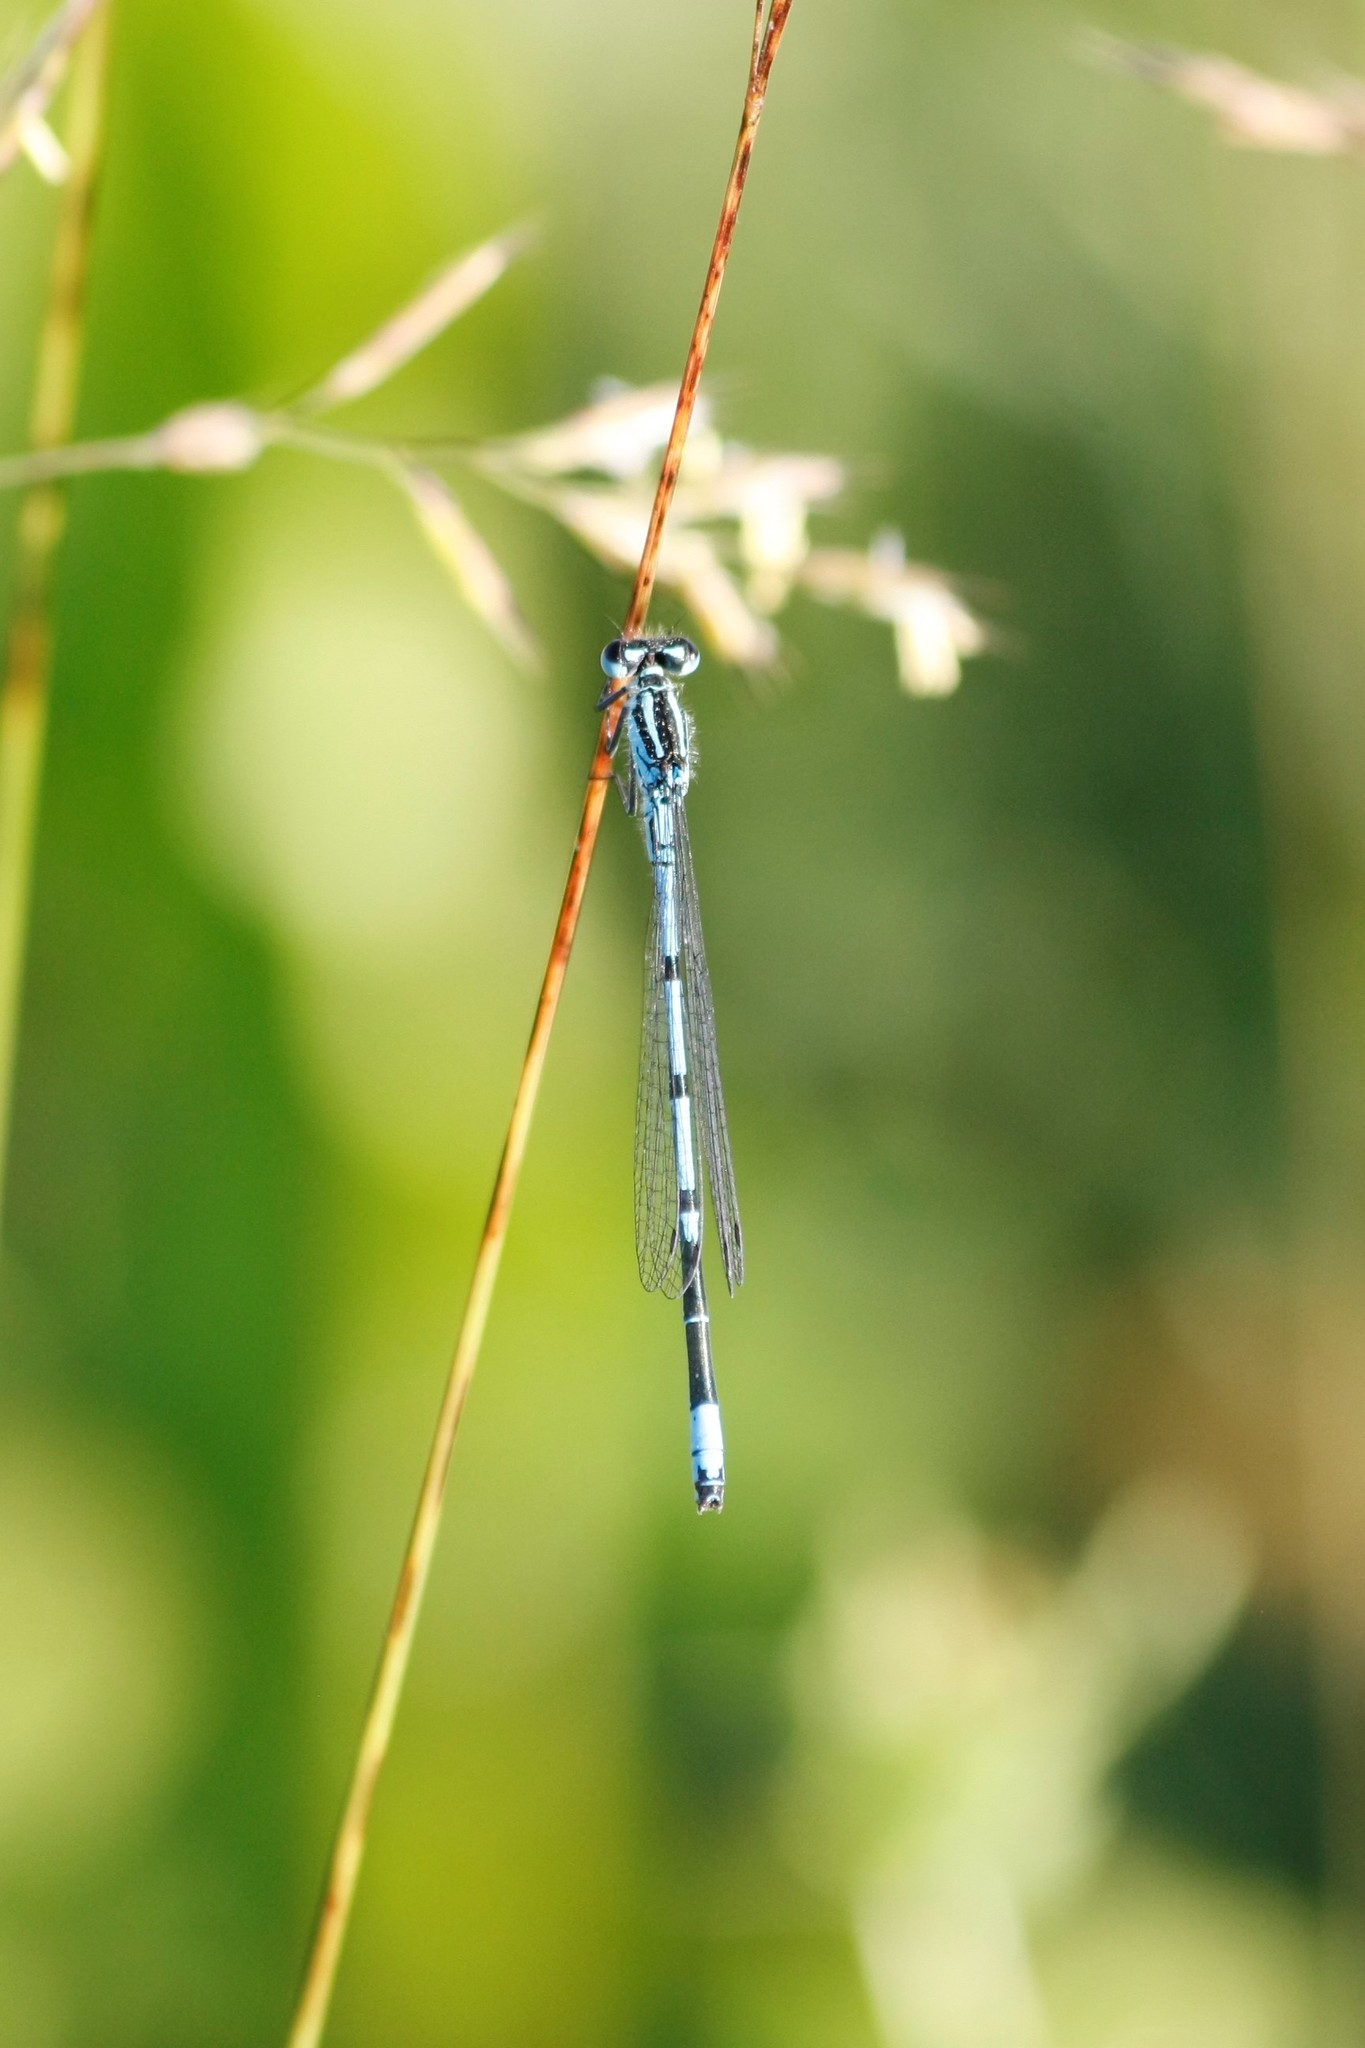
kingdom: Animalia
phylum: Arthropoda
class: Insecta
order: Odonata
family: Coenagrionidae
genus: Coenagrion
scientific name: Coenagrion puella
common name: Azure damselfly
